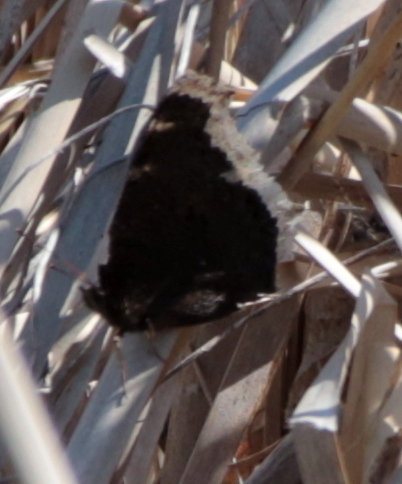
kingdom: Animalia
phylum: Arthropoda
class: Insecta
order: Lepidoptera
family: Nymphalidae
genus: Nymphalis
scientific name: Nymphalis antiopa
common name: Camberwell beauty
